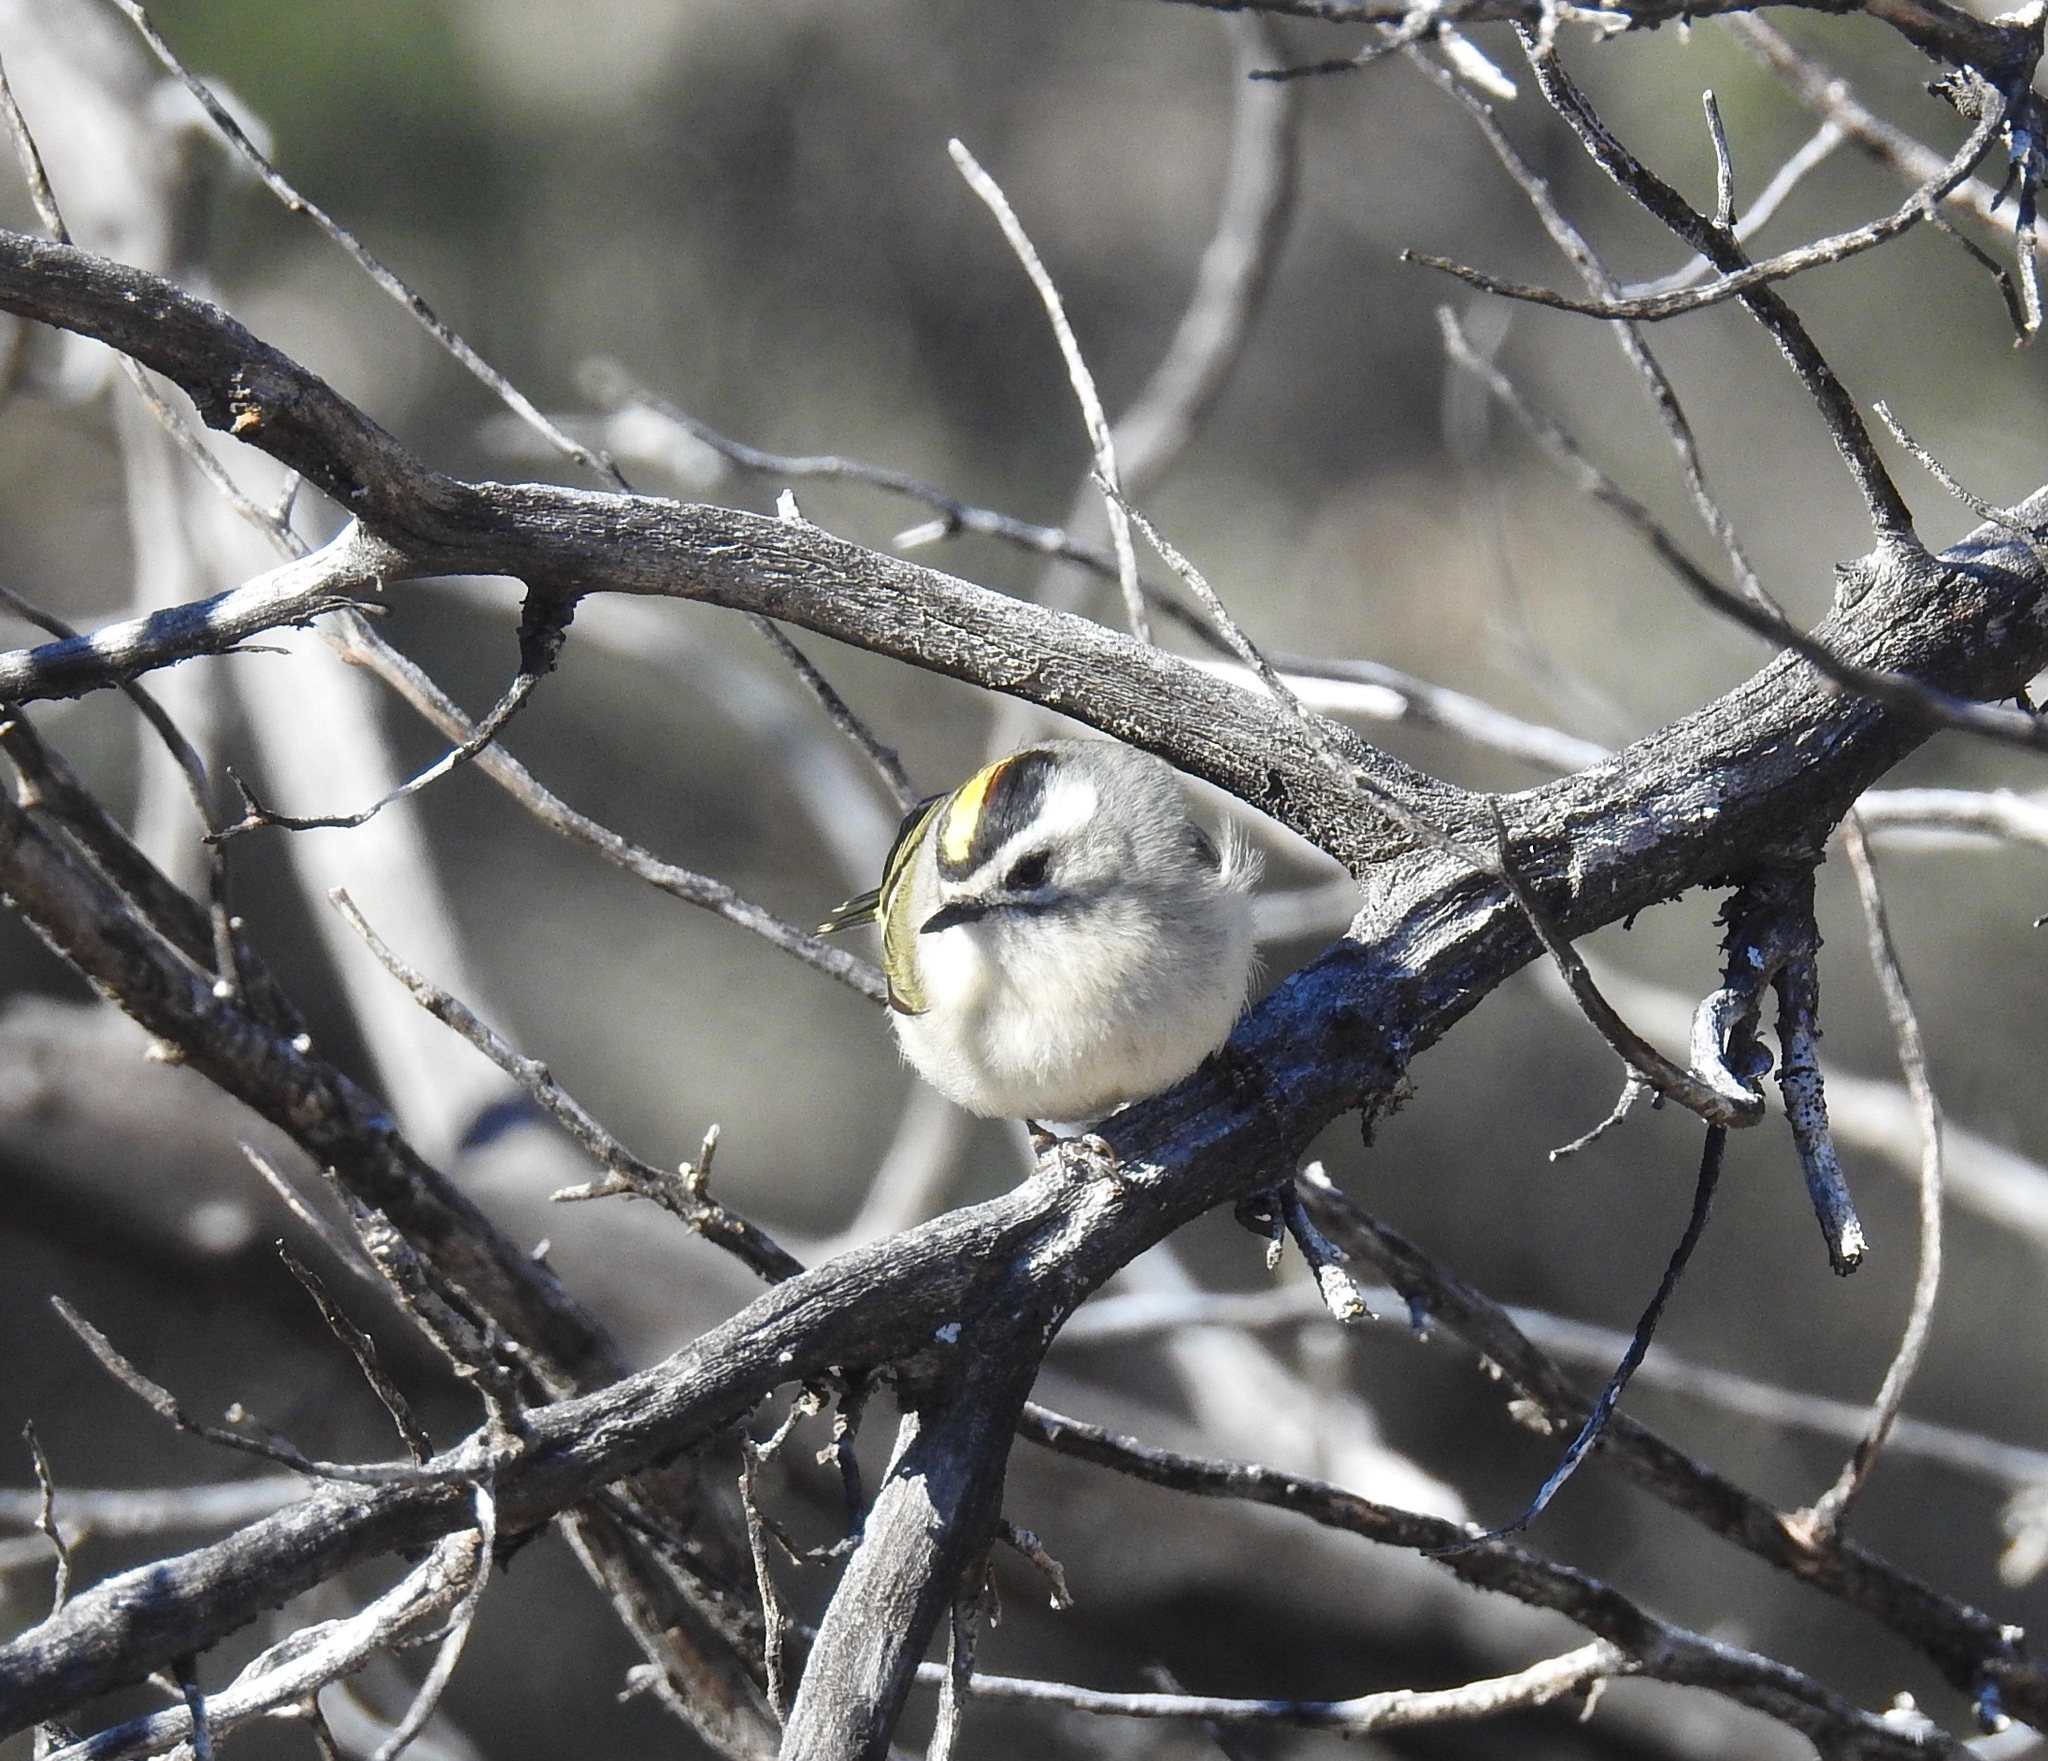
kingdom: Animalia
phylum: Chordata
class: Aves
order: Passeriformes
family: Regulidae
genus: Regulus
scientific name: Regulus satrapa
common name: Golden-crowned kinglet
